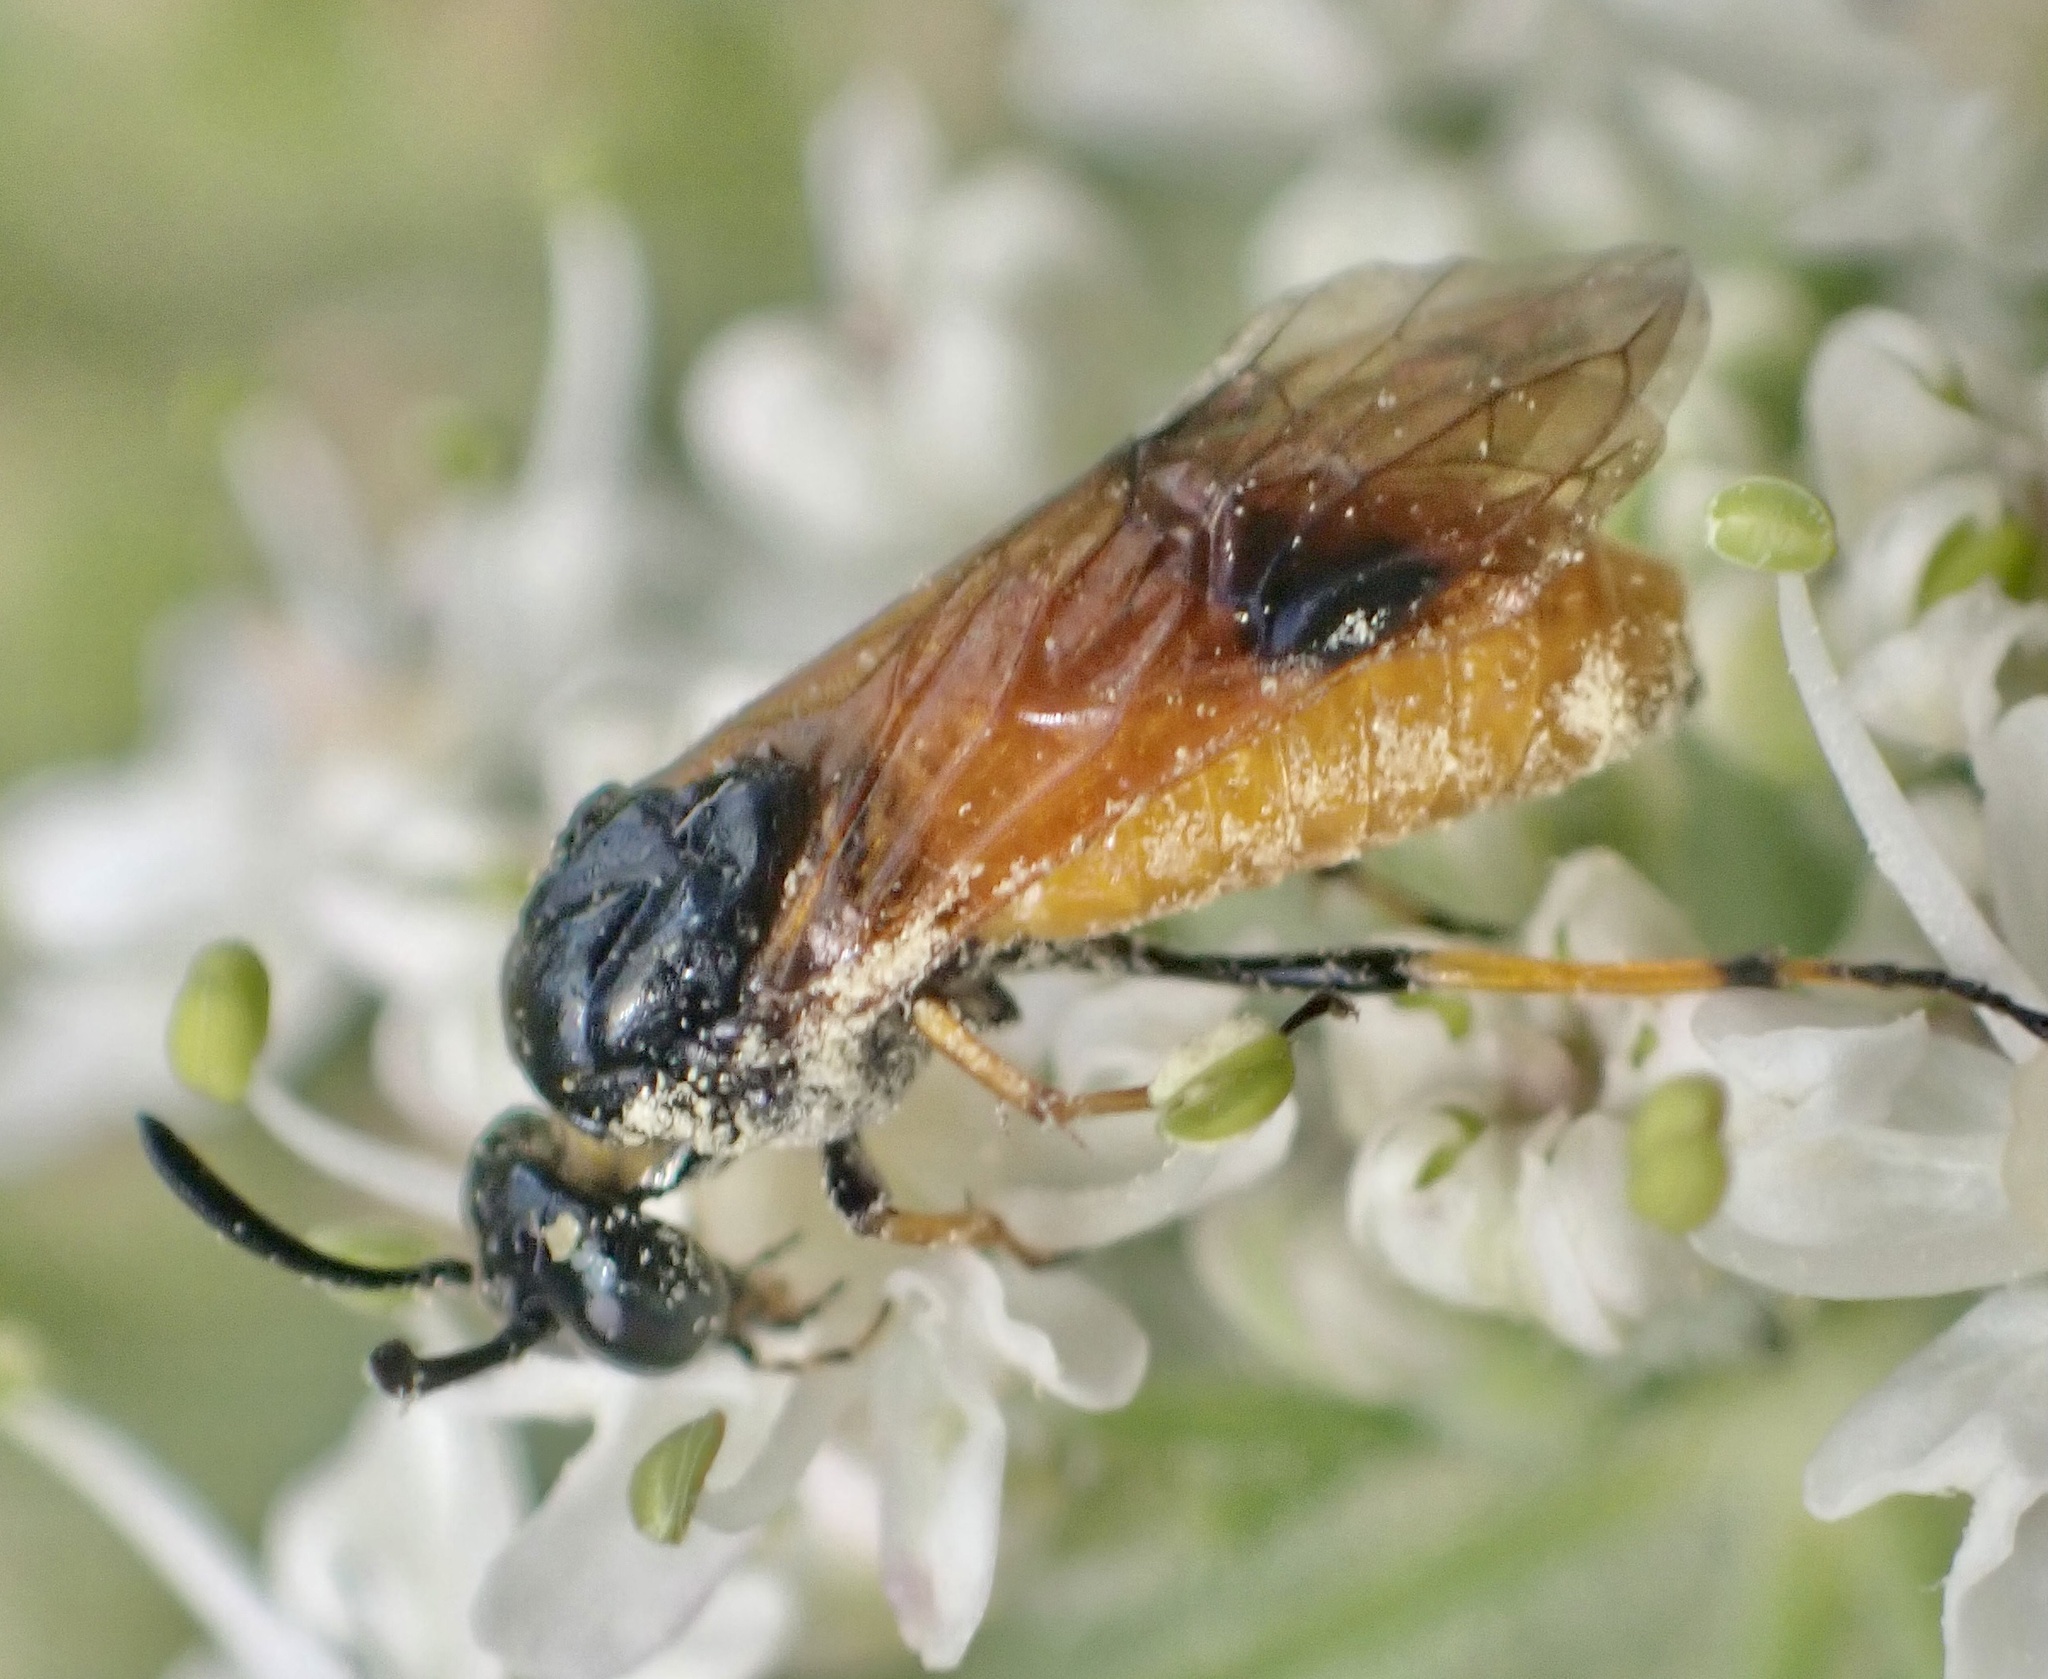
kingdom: Animalia
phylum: Arthropoda
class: Insecta
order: Hymenoptera
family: Argidae
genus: Arge
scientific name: Arge melanochra
